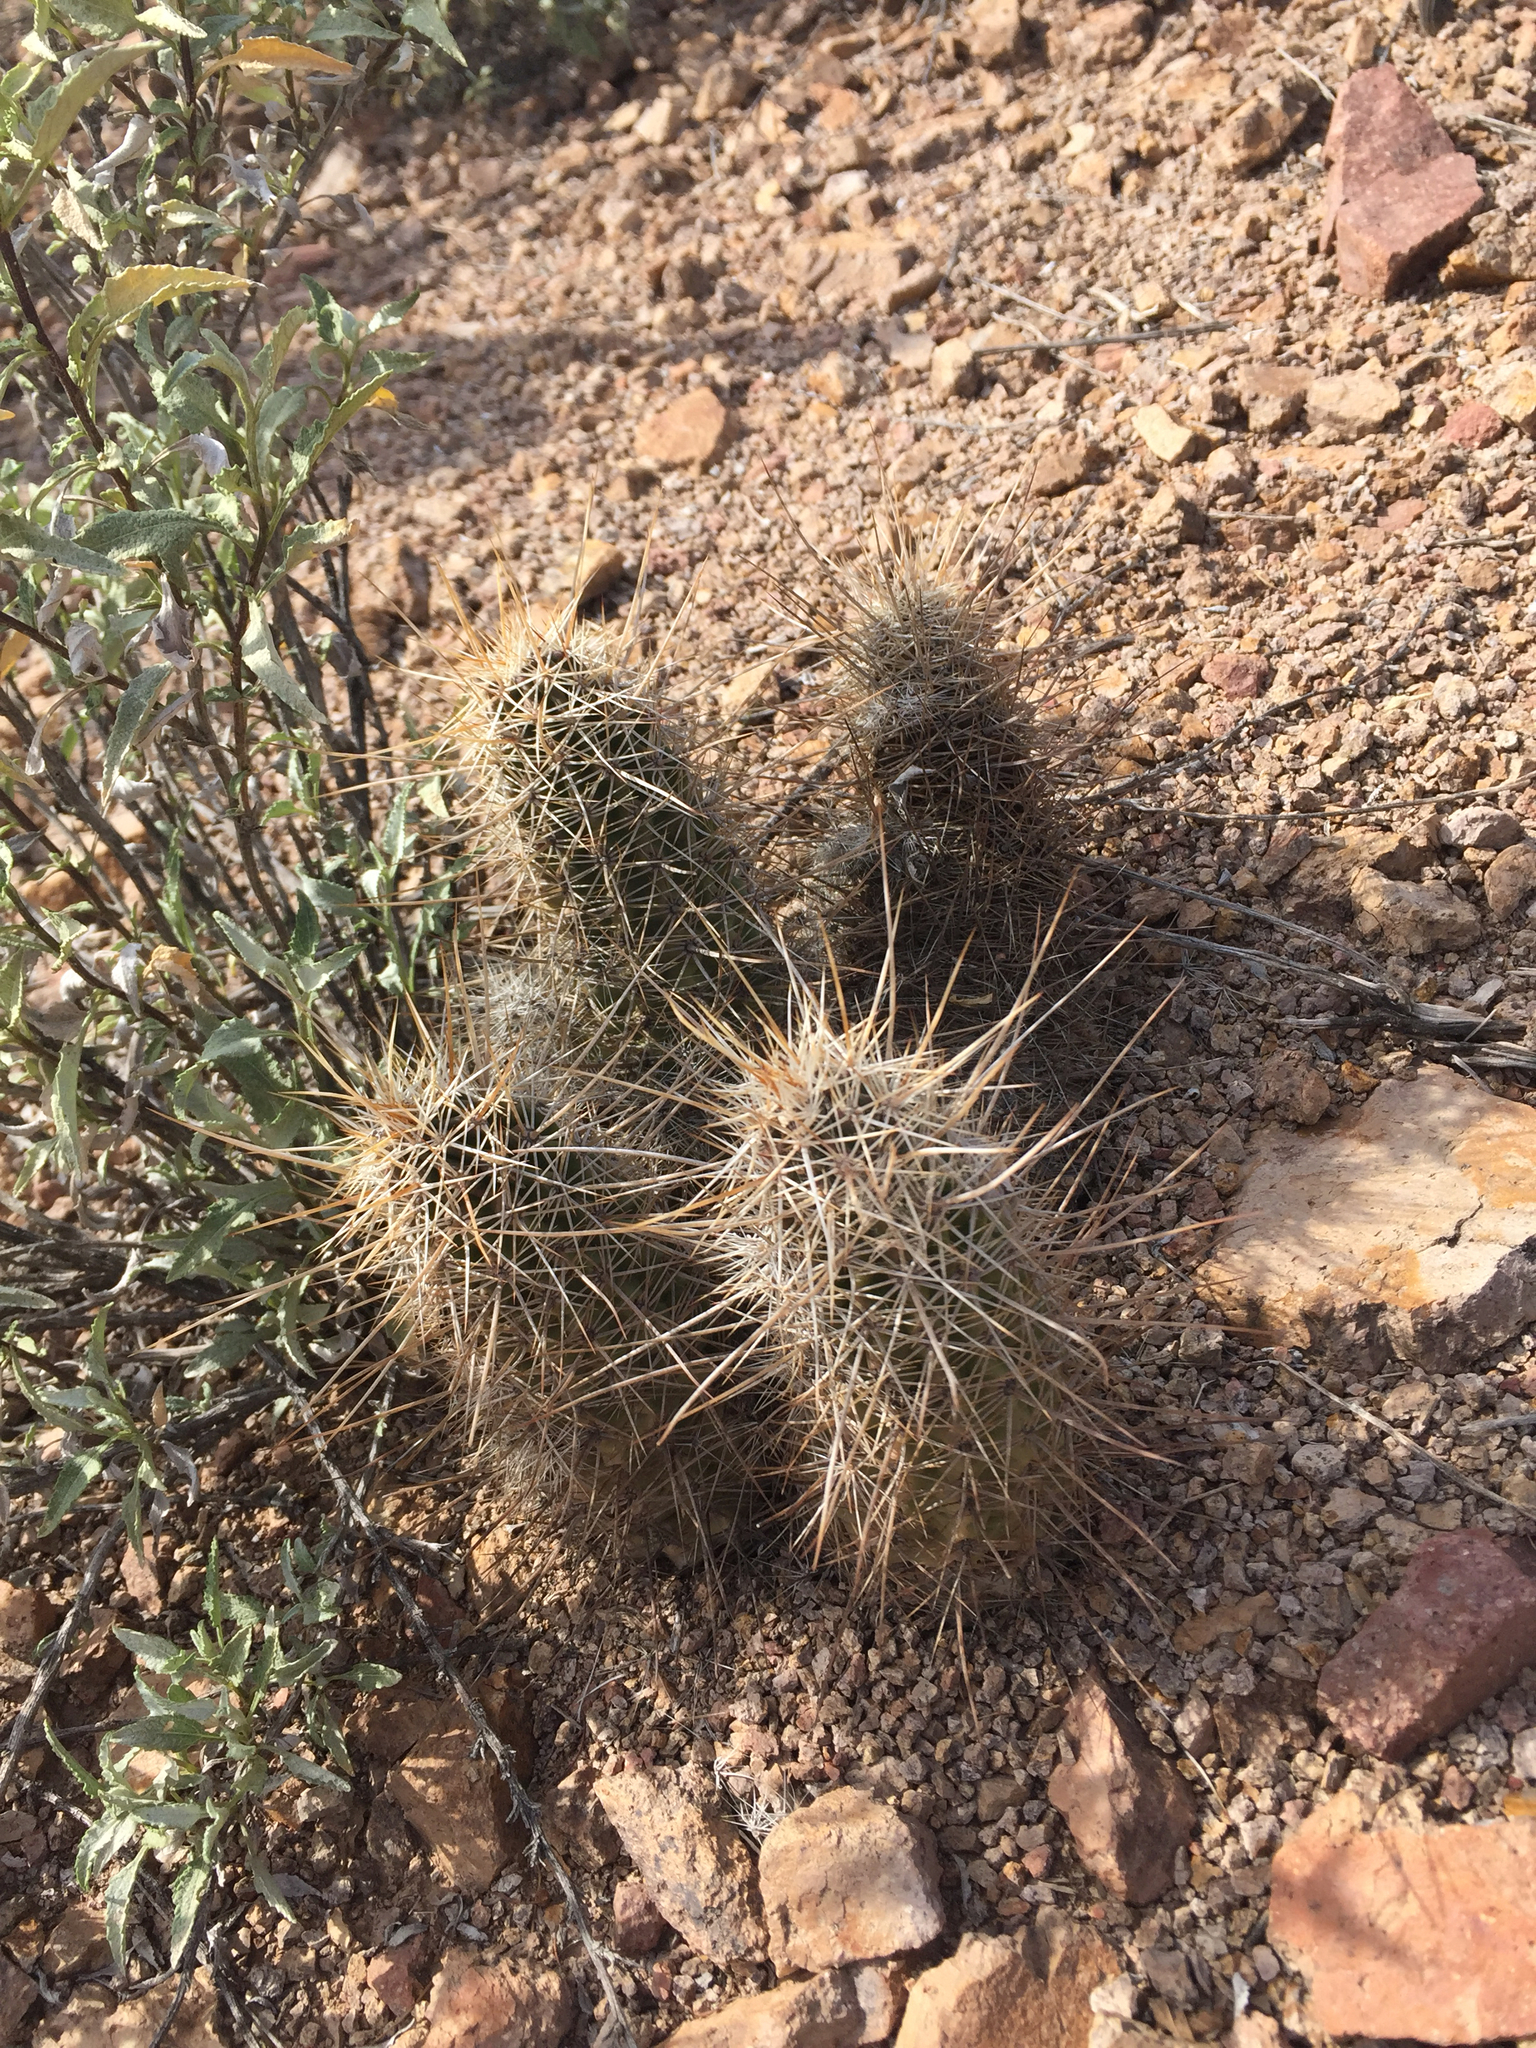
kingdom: Plantae
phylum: Tracheophyta
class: Magnoliopsida
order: Caryophyllales
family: Cactaceae
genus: Echinocereus
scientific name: Echinocereus fasciculatus
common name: Bundle hedgehog
